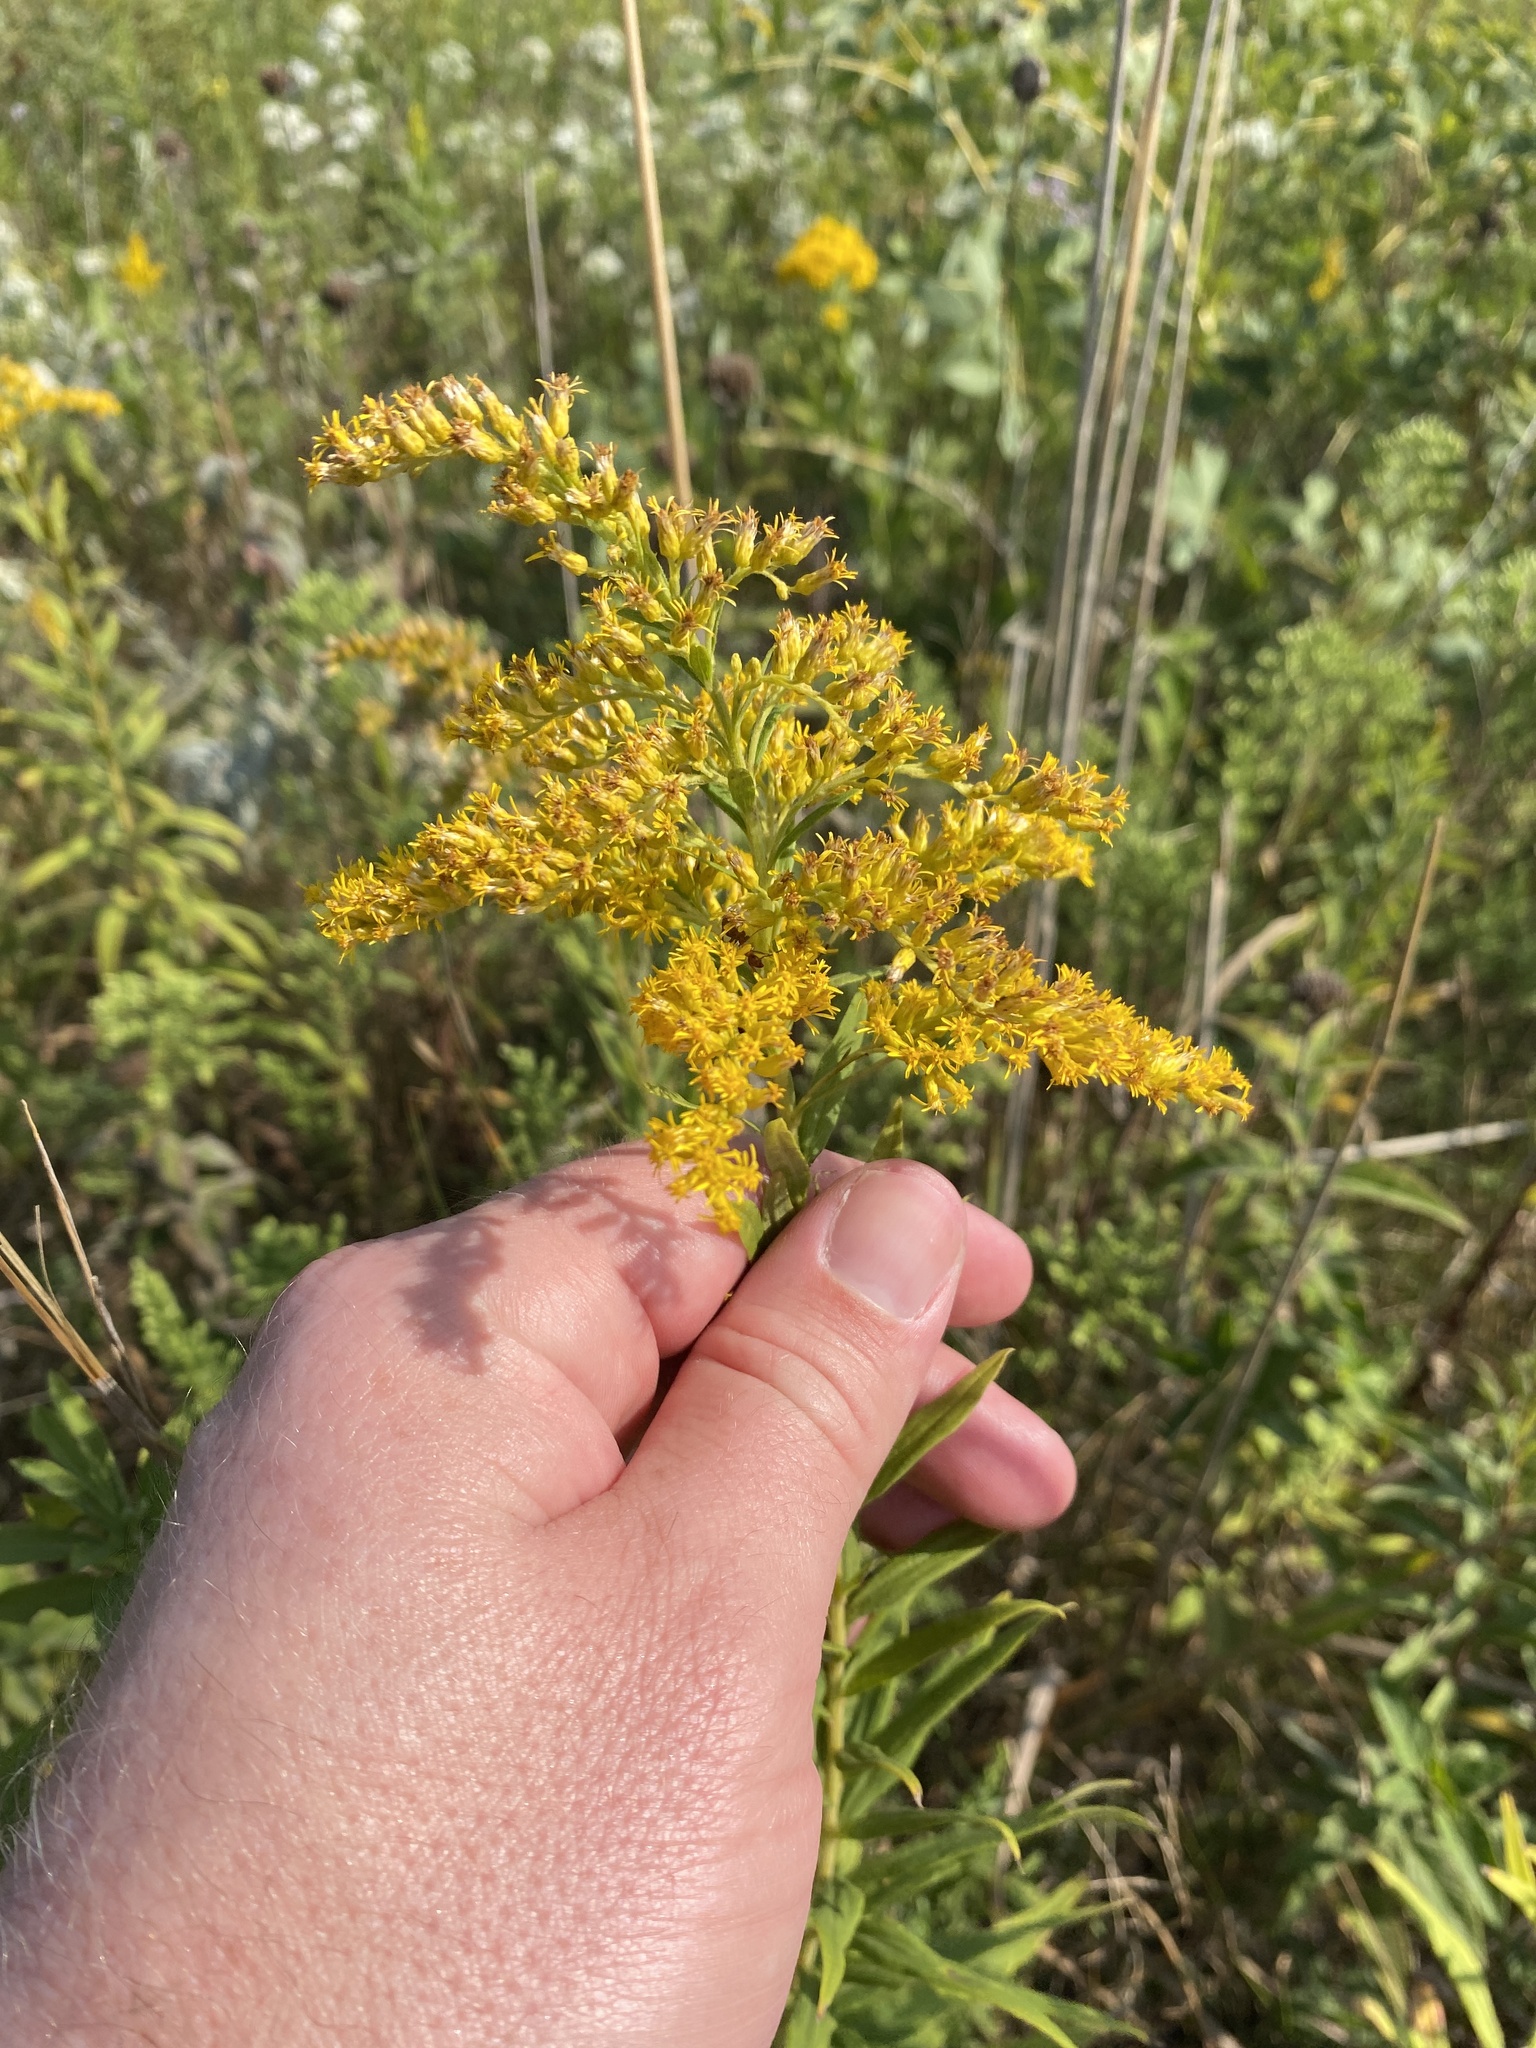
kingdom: Plantae
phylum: Tracheophyta
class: Magnoliopsida
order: Asterales
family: Asteraceae
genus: Solidago
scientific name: Solidago altissima
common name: Late goldenrod
